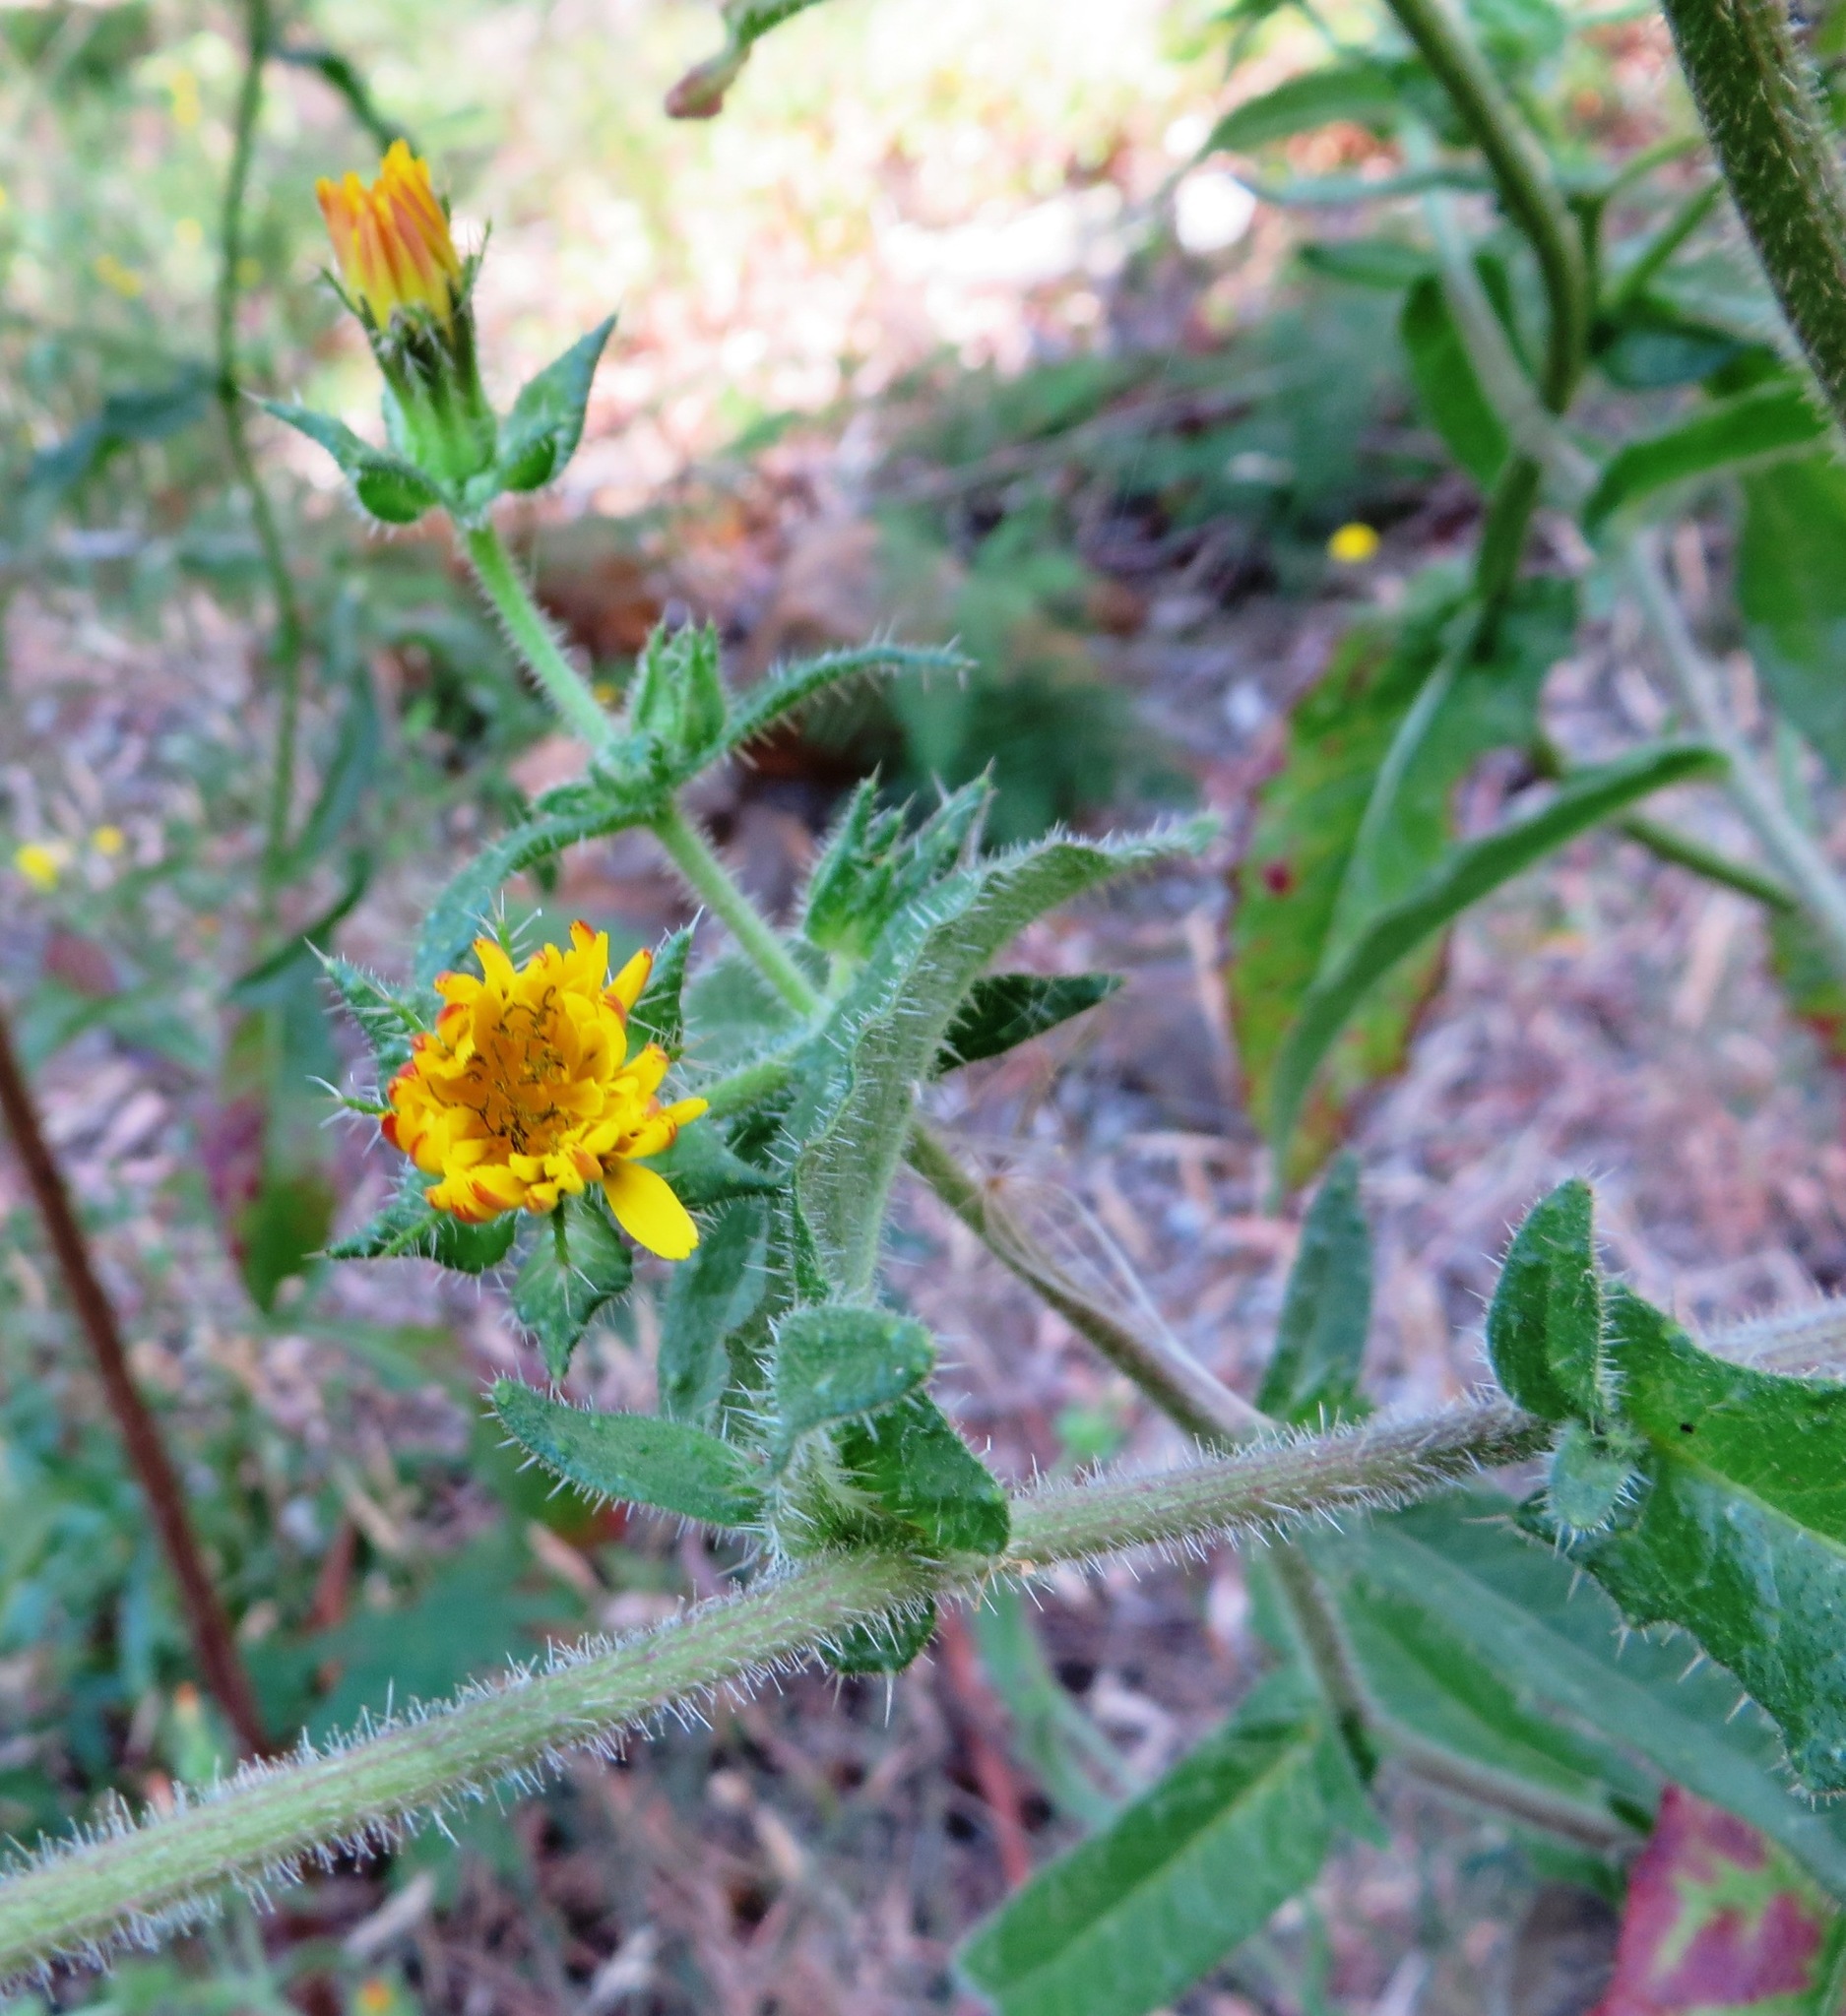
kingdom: Plantae
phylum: Tracheophyta
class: Magnoliopsida
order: Asterales
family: Asteraceae
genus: Helminthotheca
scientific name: Helminthotheca echioides
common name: Ox-tongue
